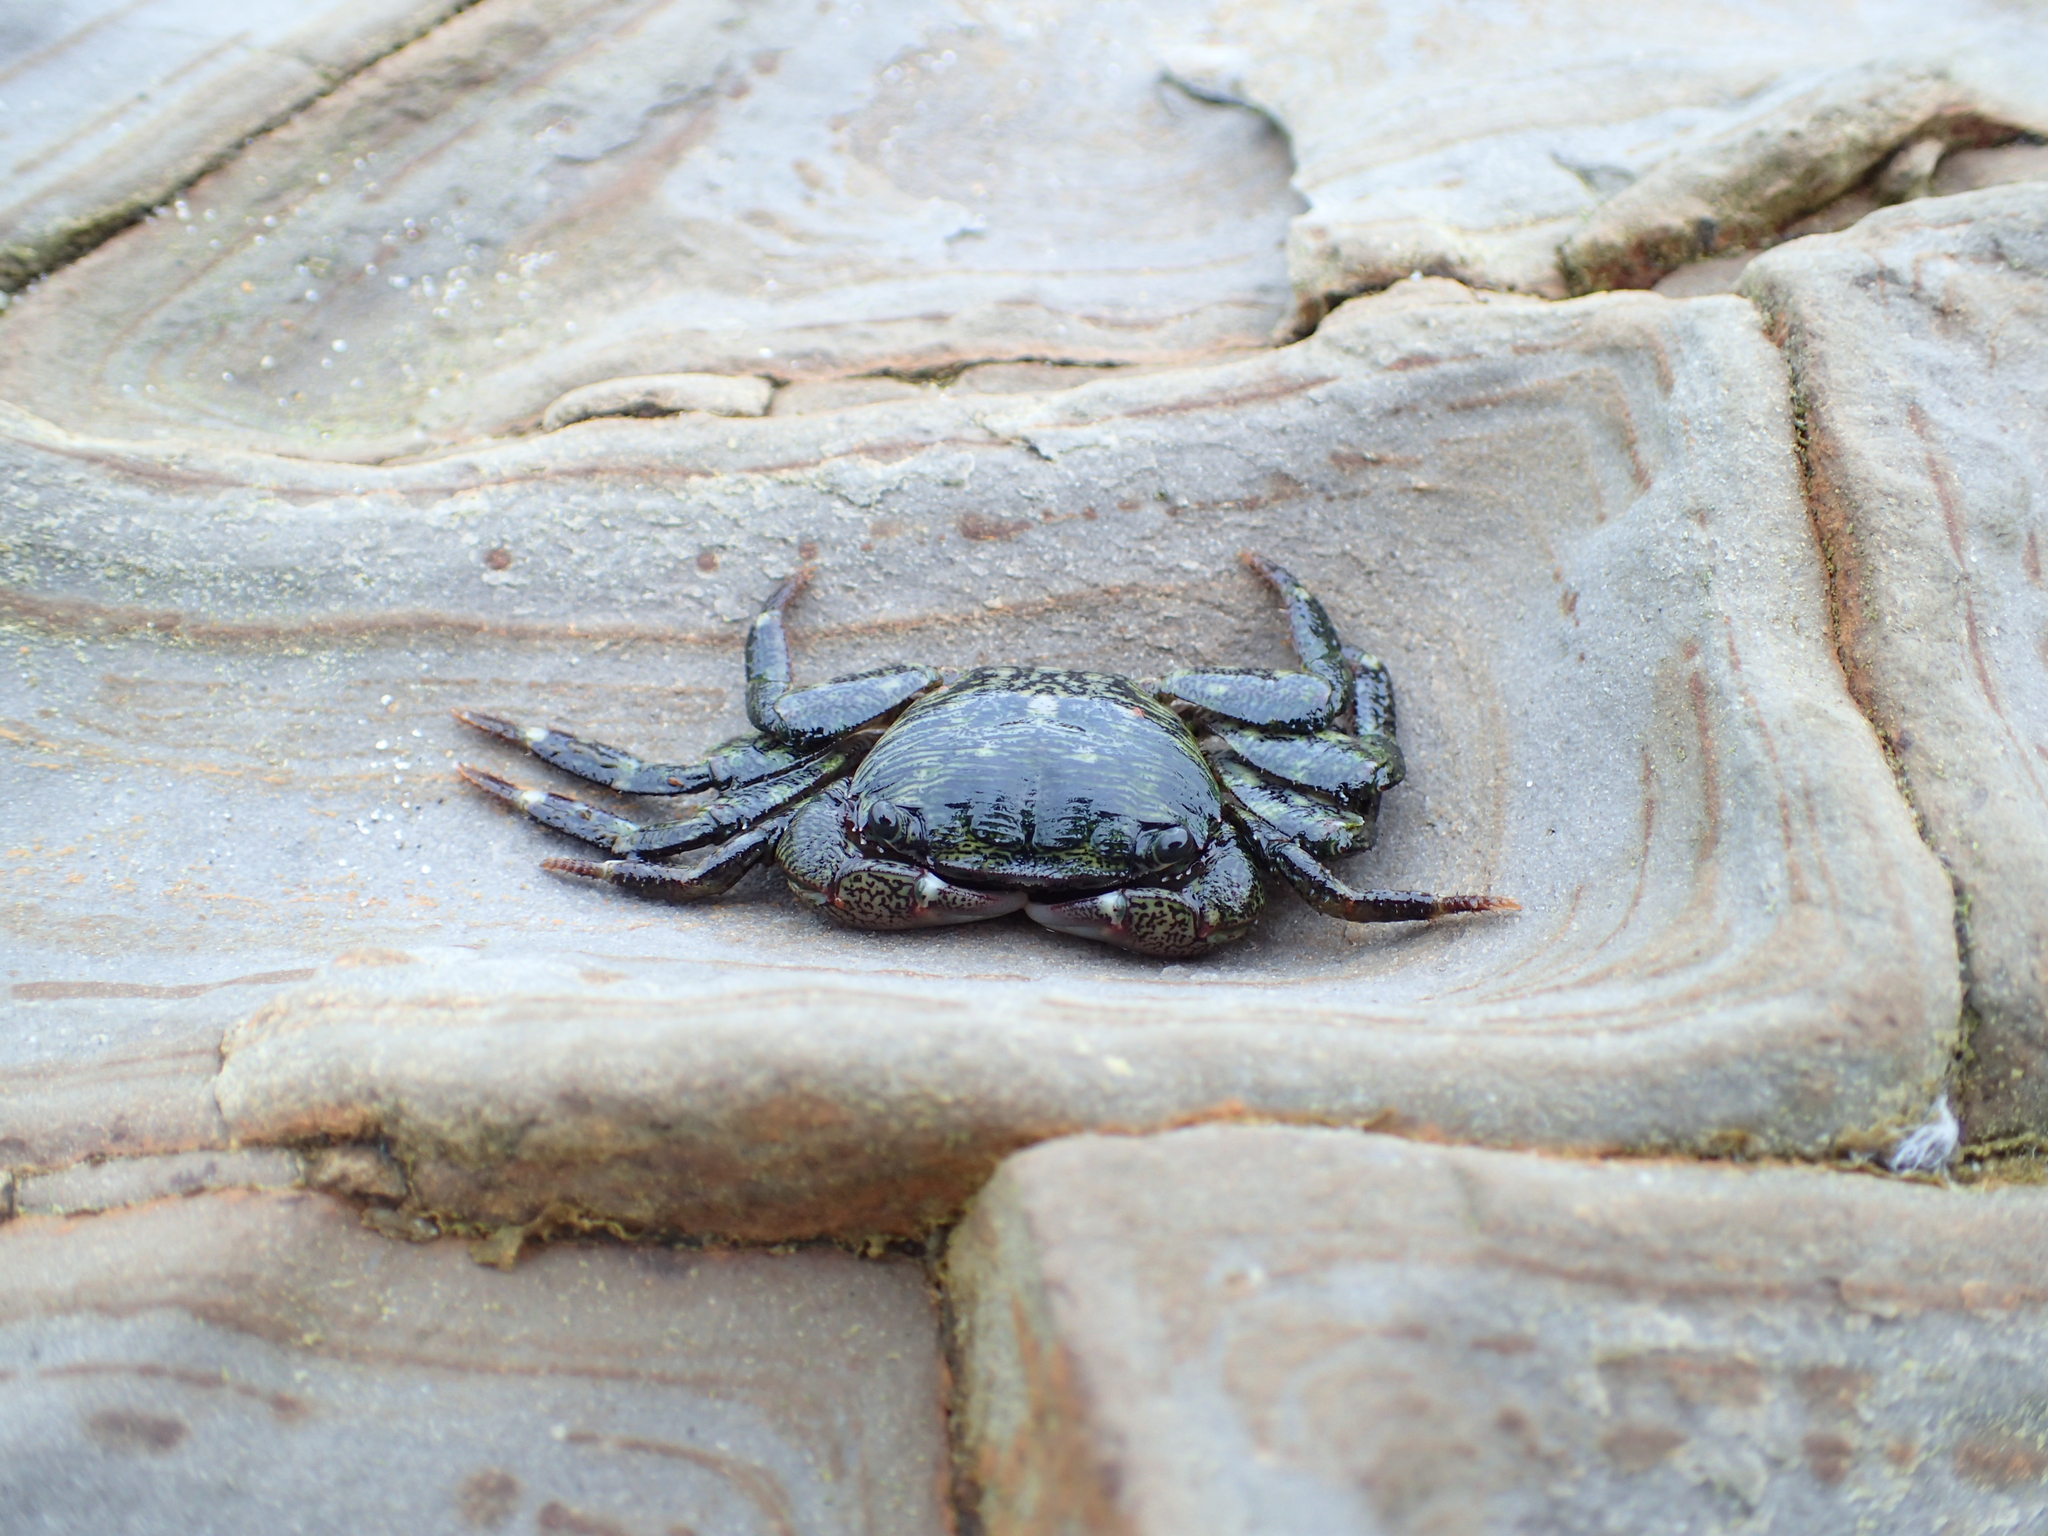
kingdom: Animalia
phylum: Arthropoda
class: Malacostraca
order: Decapoda
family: Grapsidae
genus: Pachygrapsus
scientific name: Pachygrapsus crassipes
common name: Striped shore crab
